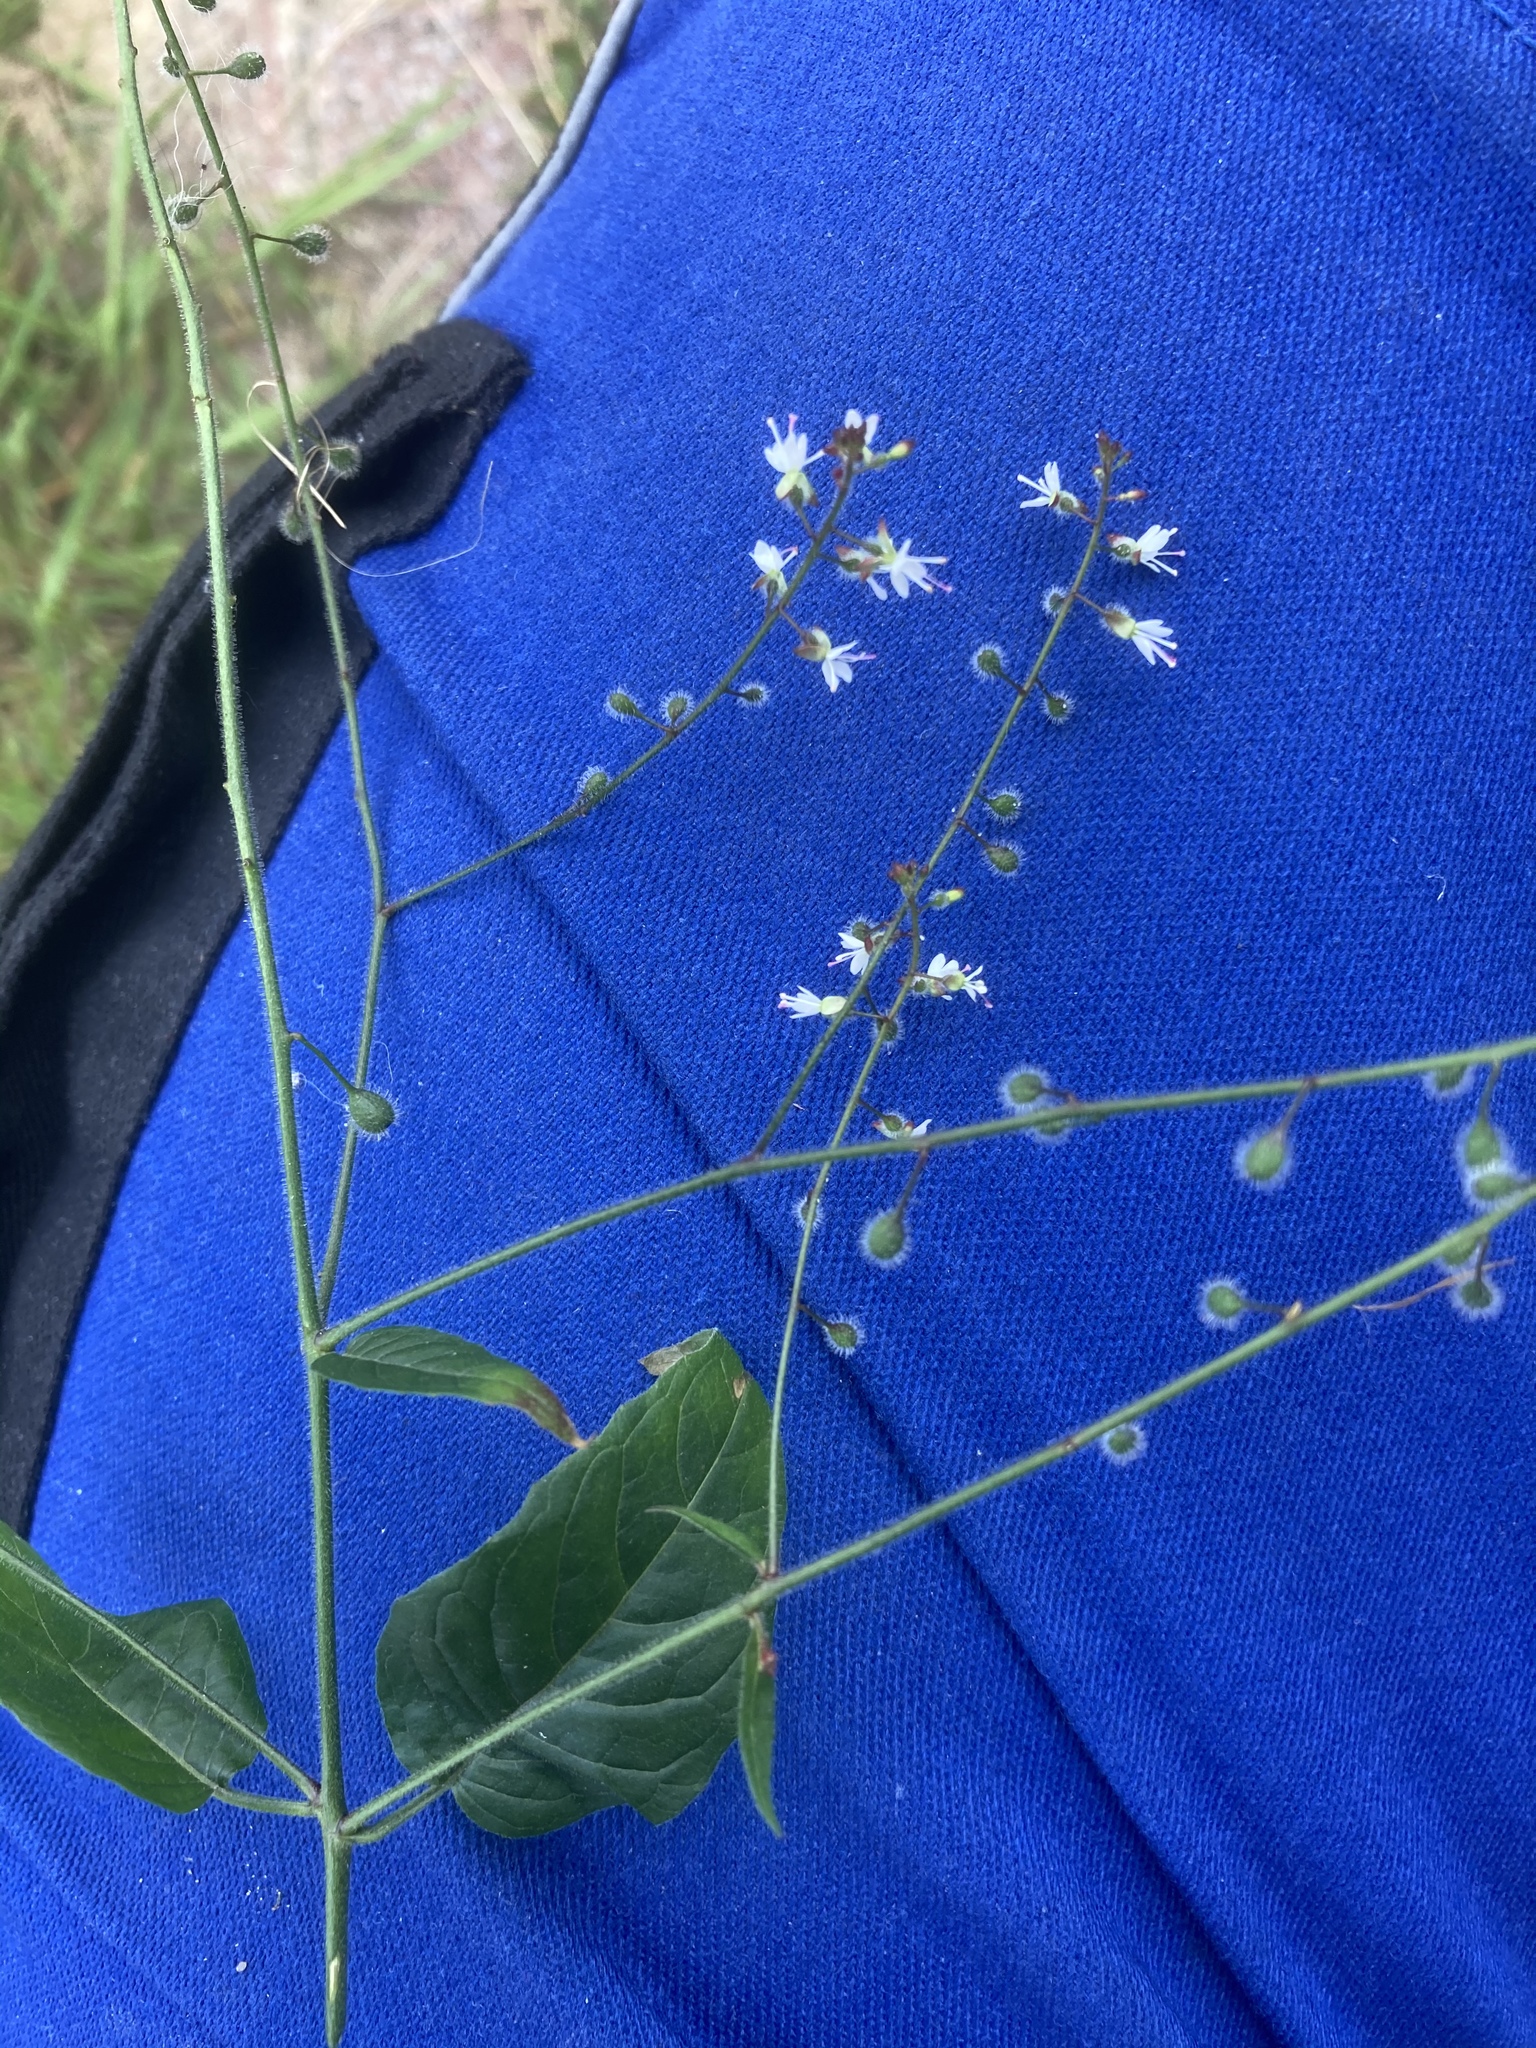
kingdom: Plantae
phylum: Tracheophyta
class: Magnoliopsida
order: Myrtales
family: Onagraceae
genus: Circaea
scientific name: Circaea lutetiana
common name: Enchanter's-nightshade
